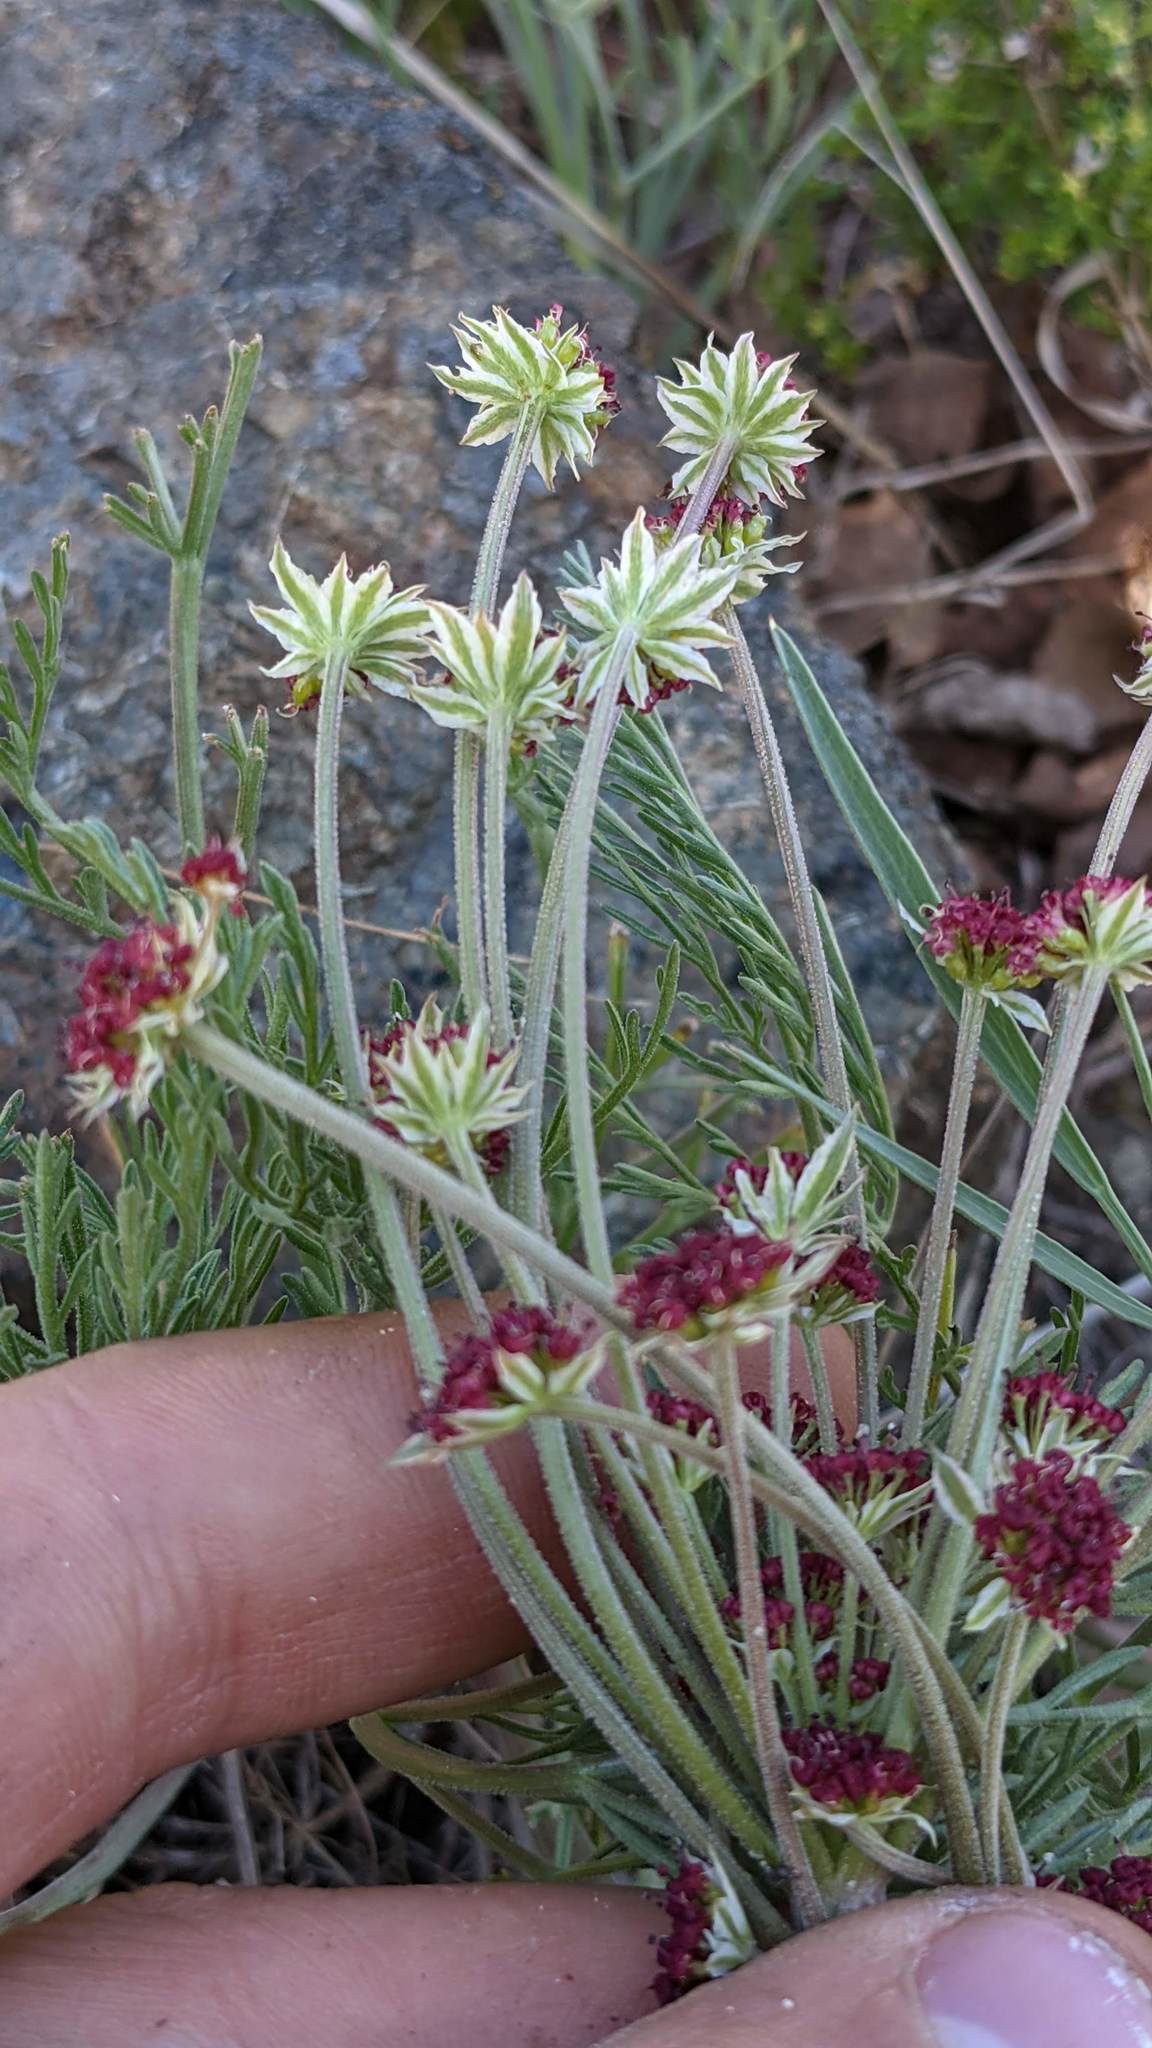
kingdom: Plantae
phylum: Tracheophyta
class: Magnoliopsida
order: Apiales
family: Apiaceae
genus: Lomatium
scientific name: Lomatium hooveri
